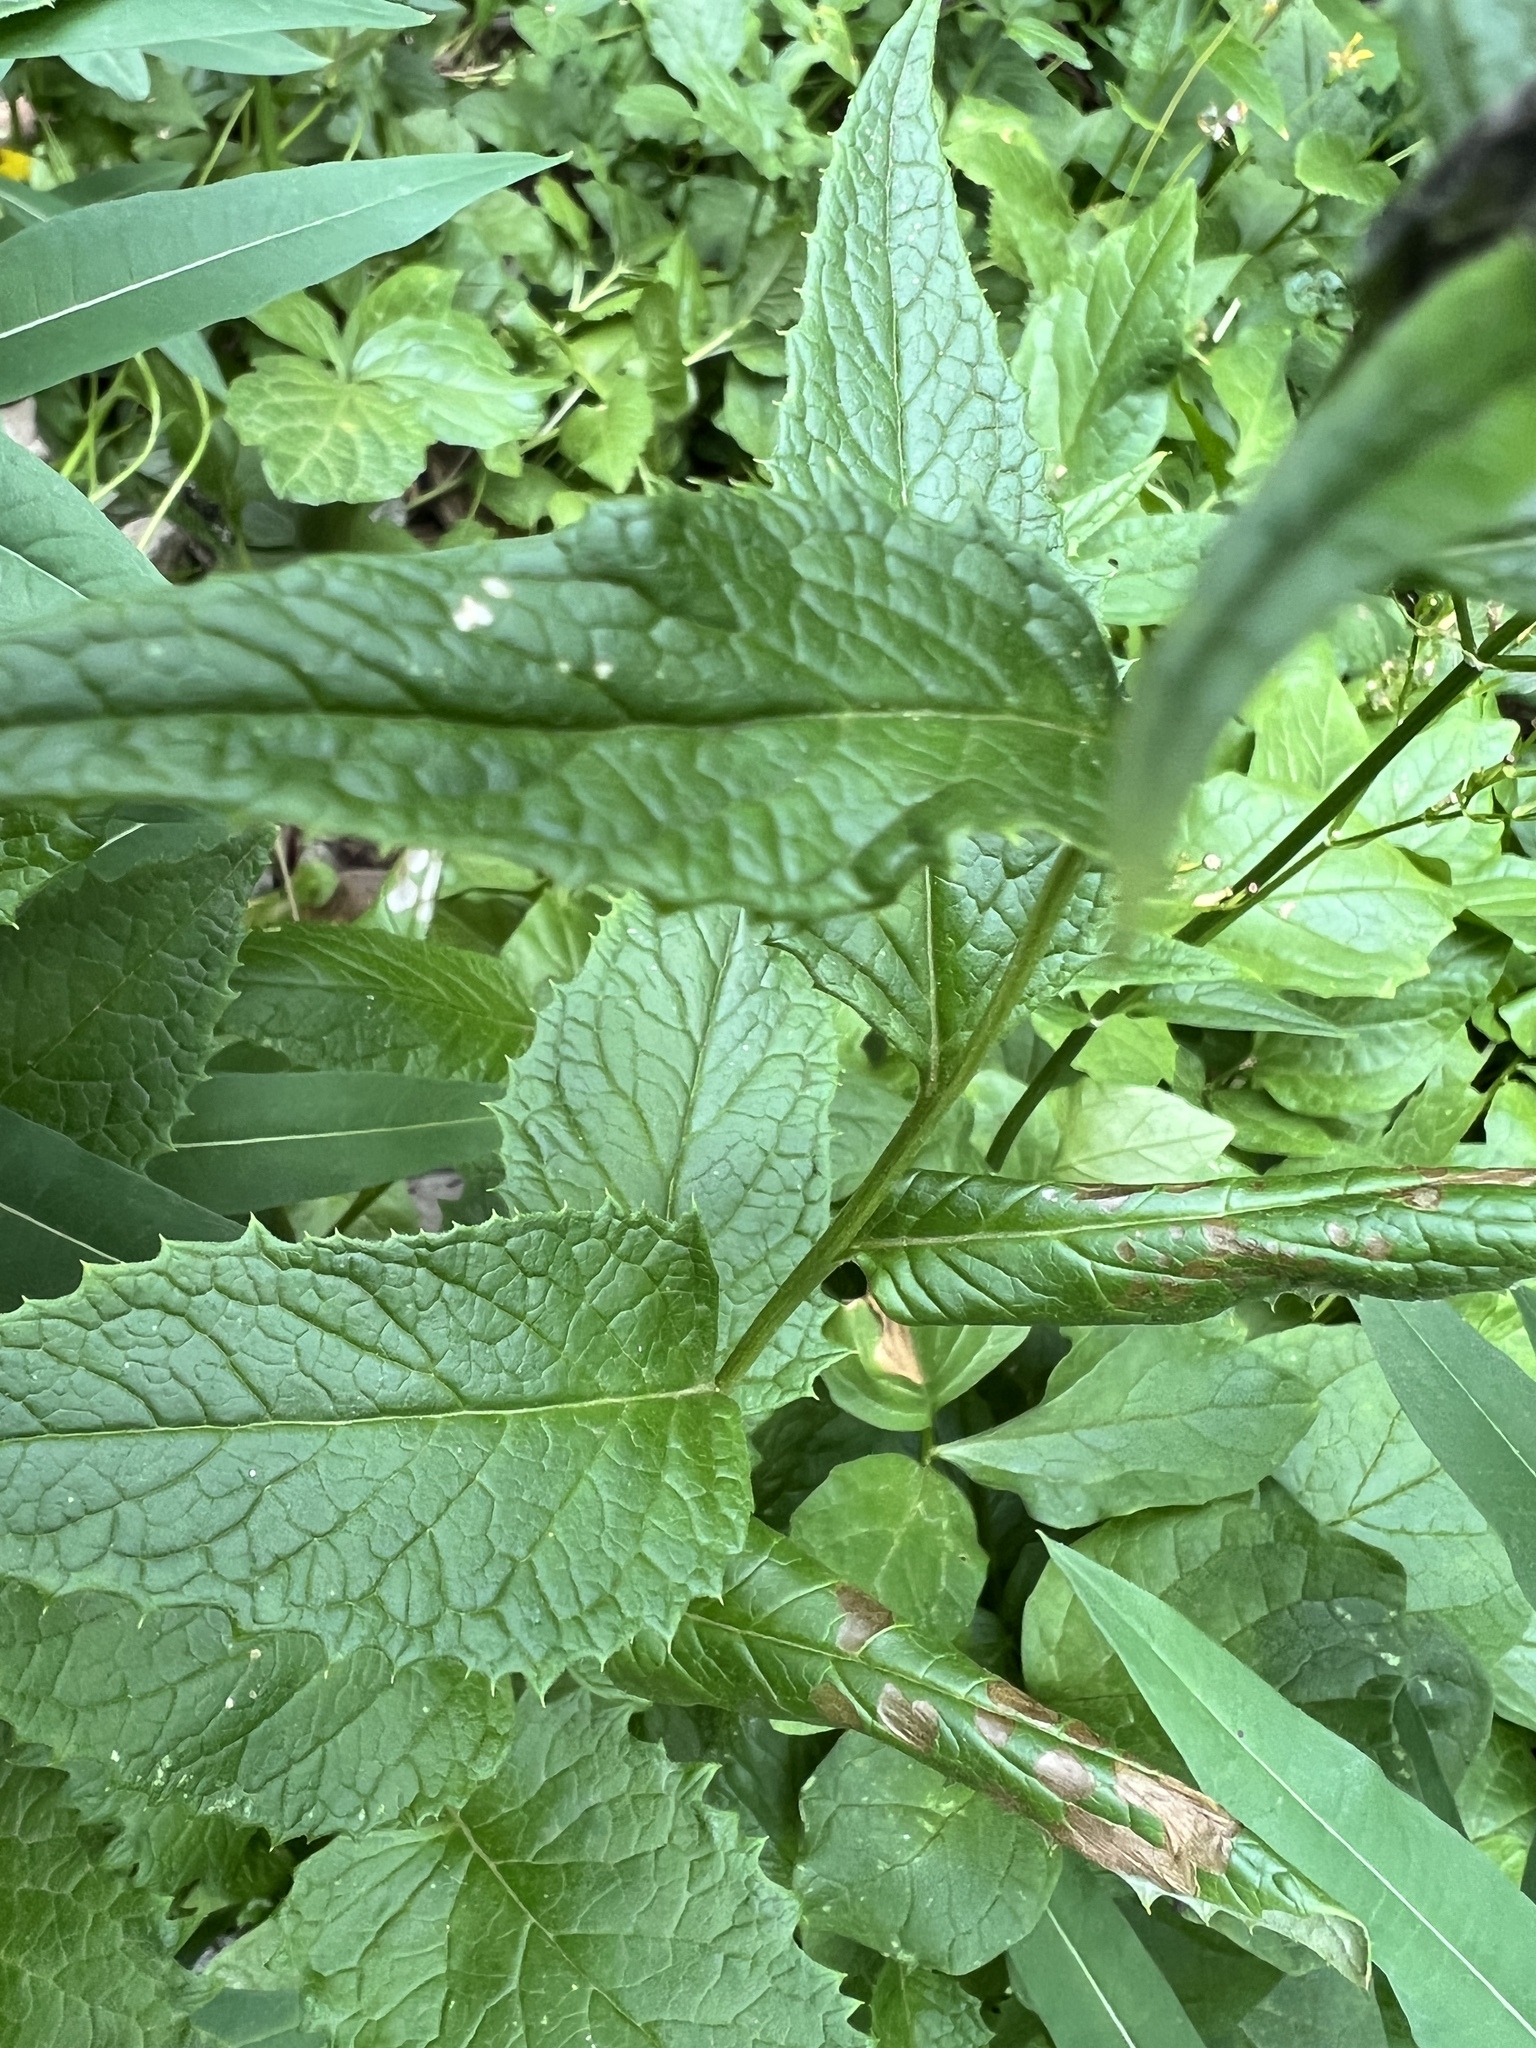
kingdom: Plantae
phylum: Tracheophyta
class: Magnoliopsida
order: Asterales
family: Asteraceae
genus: Saussurea
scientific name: Saussurea americana
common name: American saw-wort
